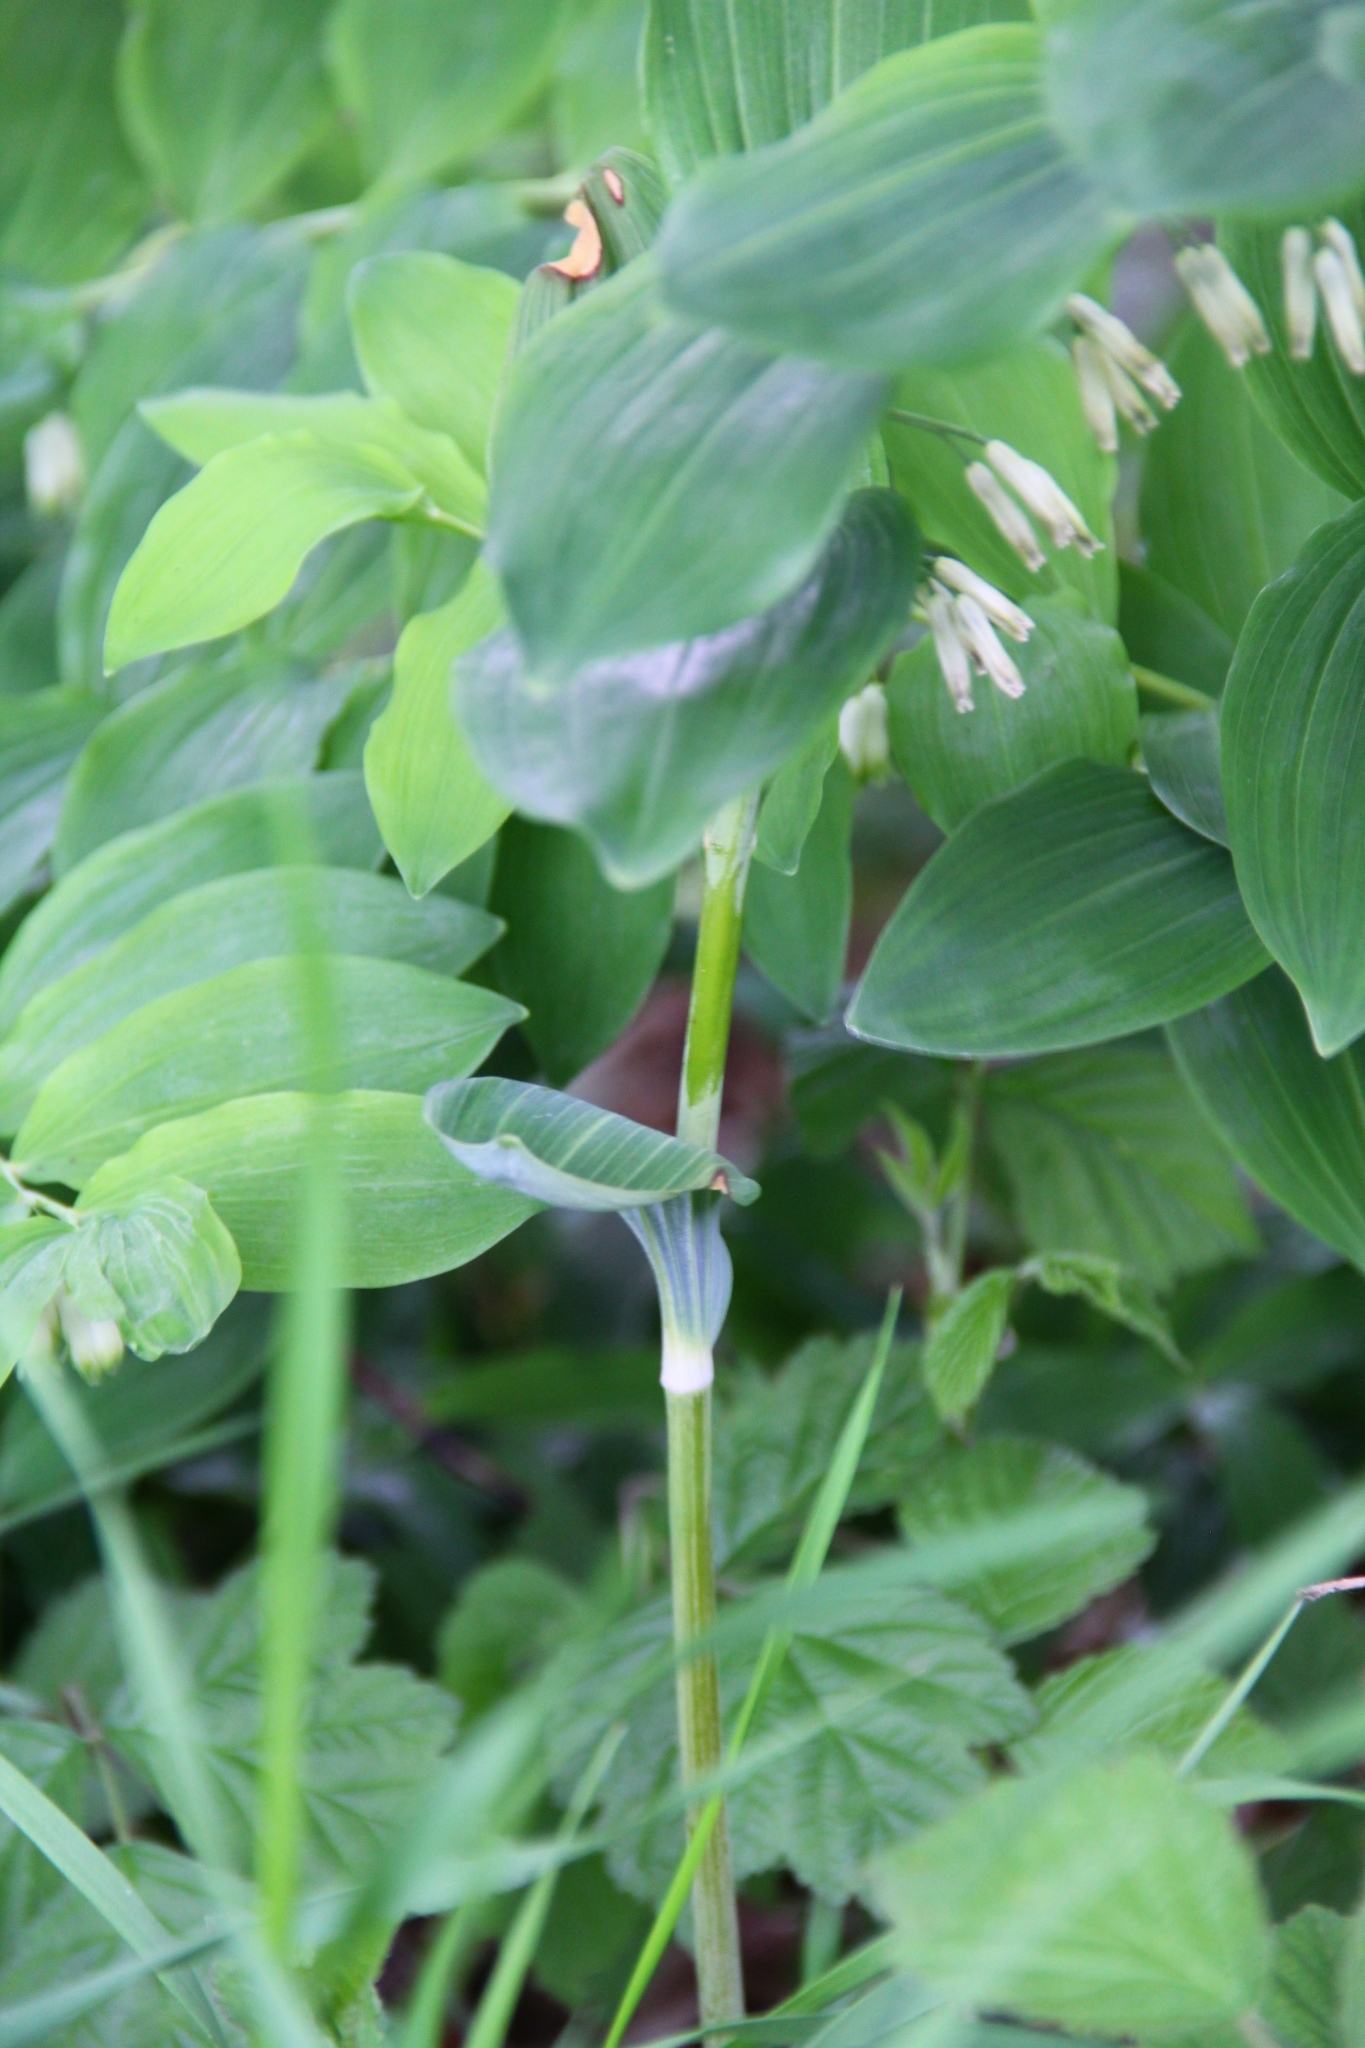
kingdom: Plantae
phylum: Tracheophyta
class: Liliopsida
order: Asparagales
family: Asparagaceae
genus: Polygonatum
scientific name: Polygonatum multiflorum
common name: Solomon's-seal
